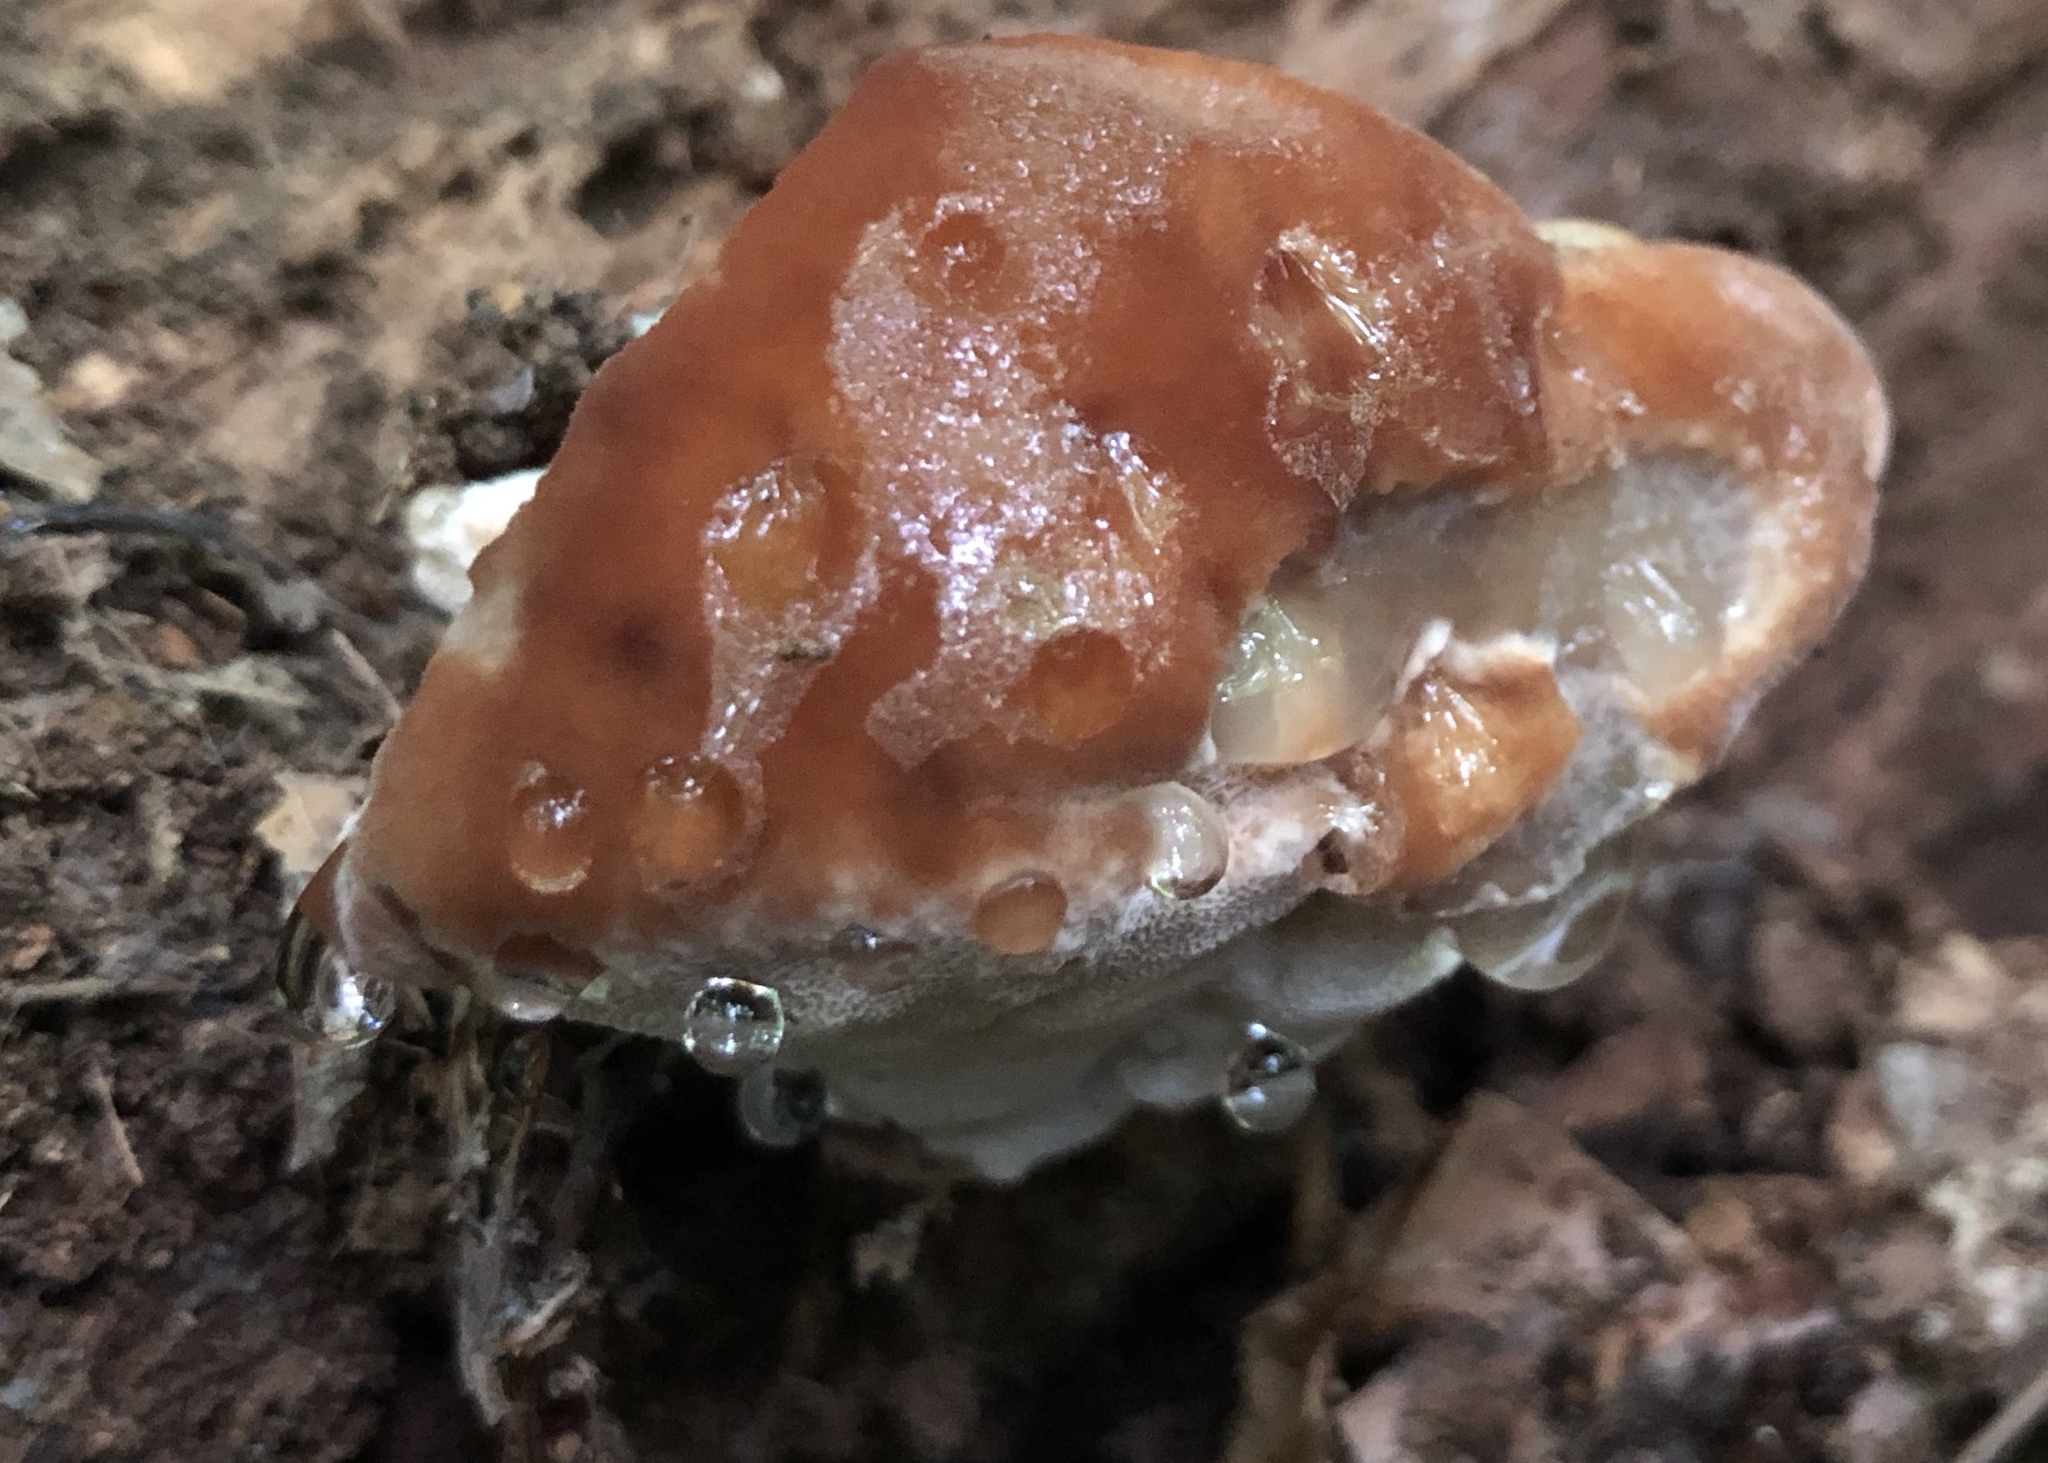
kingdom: Fungi
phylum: Basidiomycota
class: Agaricomycetes
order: Polyporales
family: Fomitopsidaceae
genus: Niveoporofomes
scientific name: Niveoporofomes spraguei
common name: Green cheese polypore
